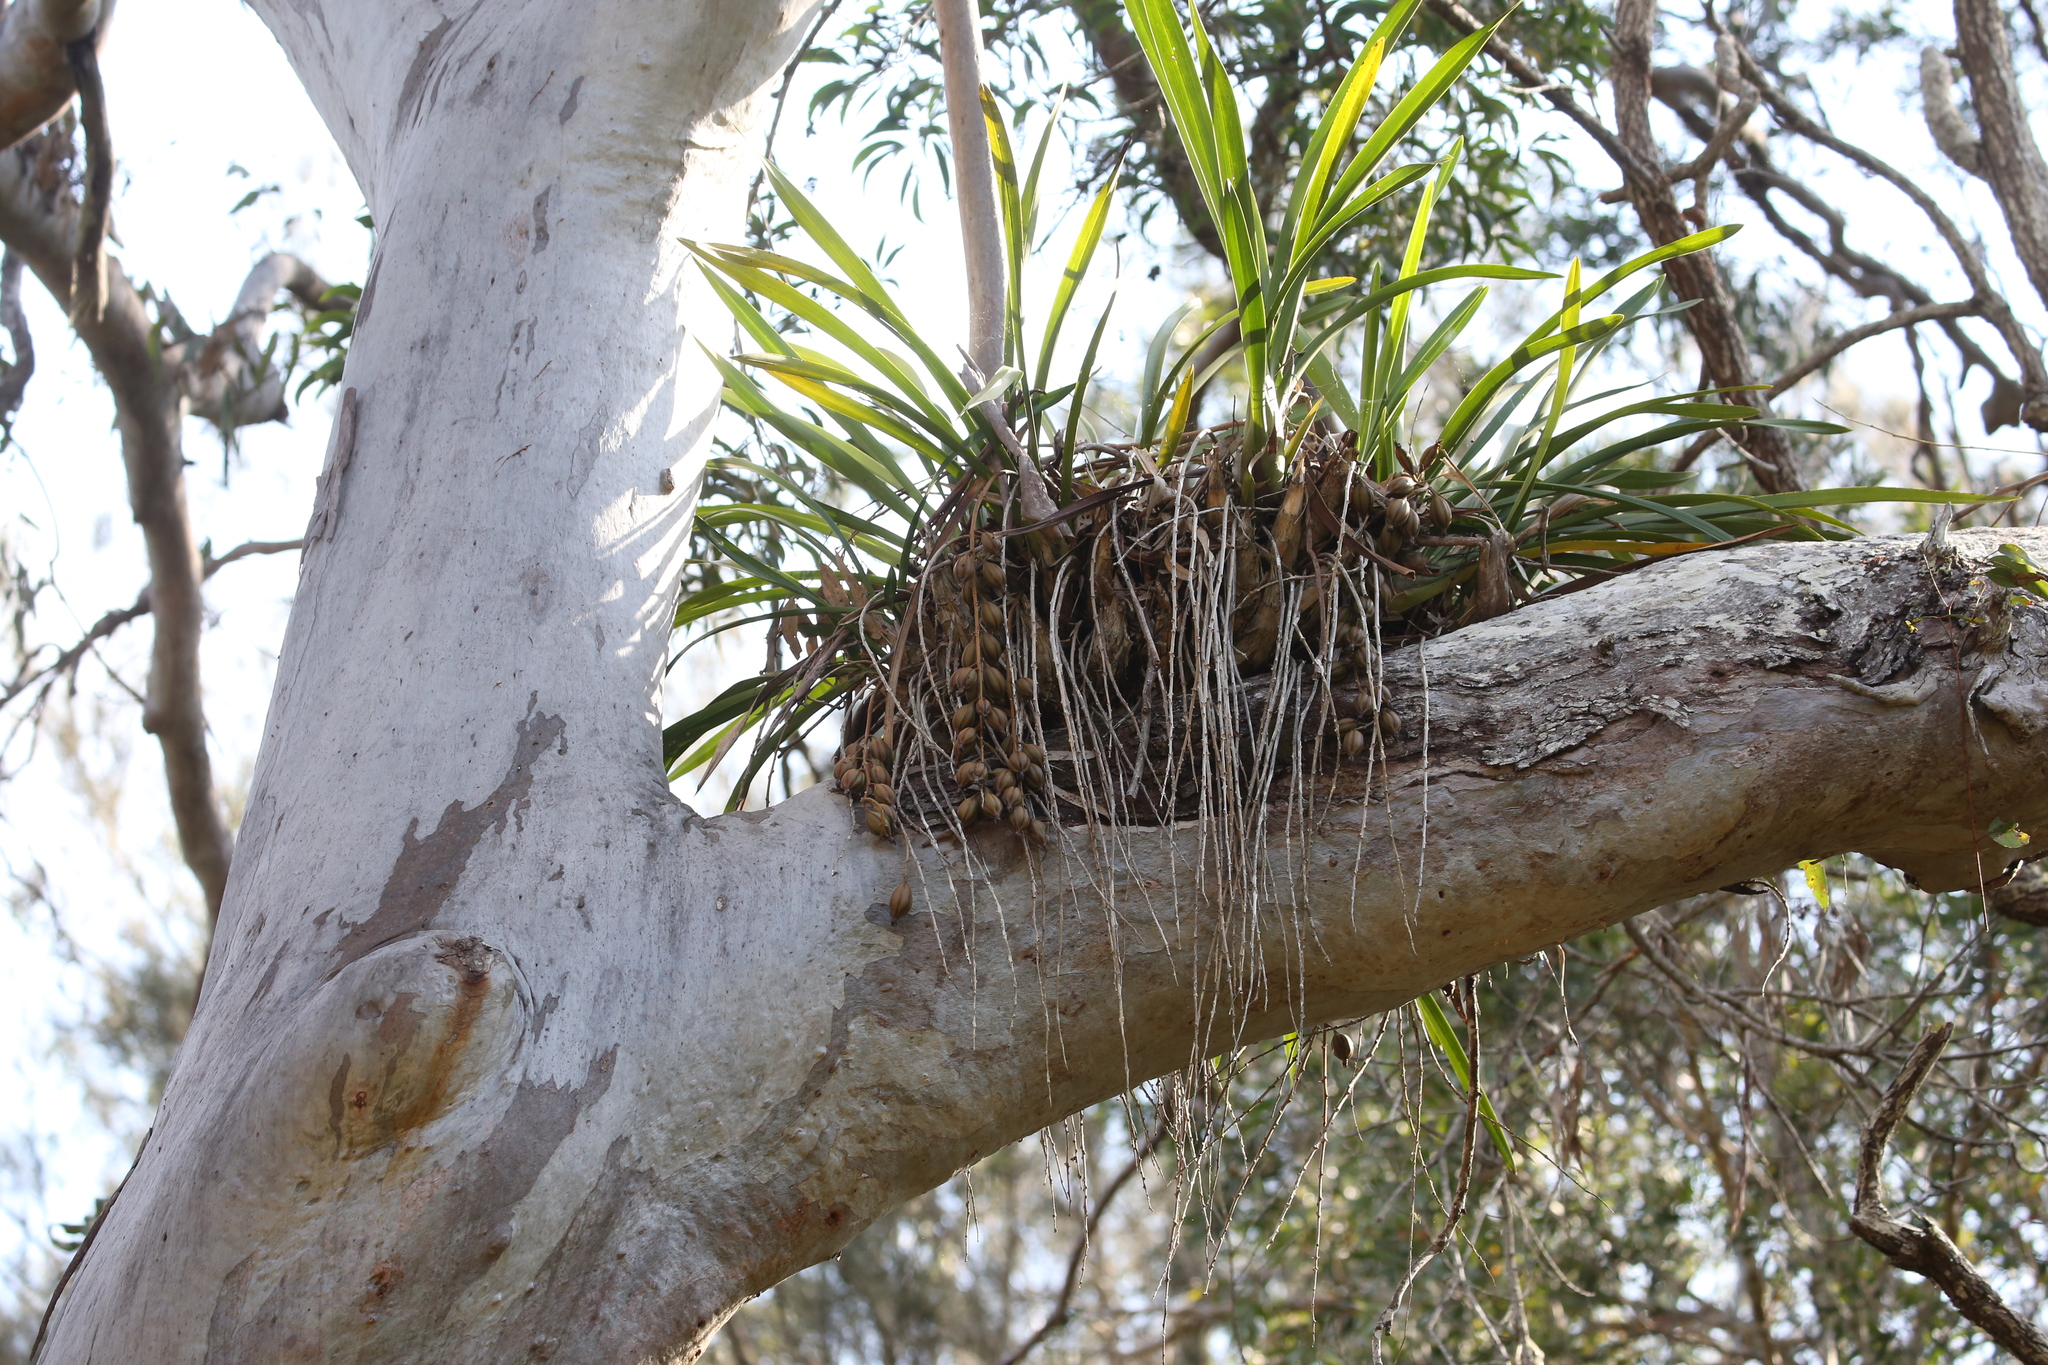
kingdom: Plantae
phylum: Tracheophyta
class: Liliopsida
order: Asparagales
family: Orchidaceae
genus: Cymbidium
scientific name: Cymbidium madidum
